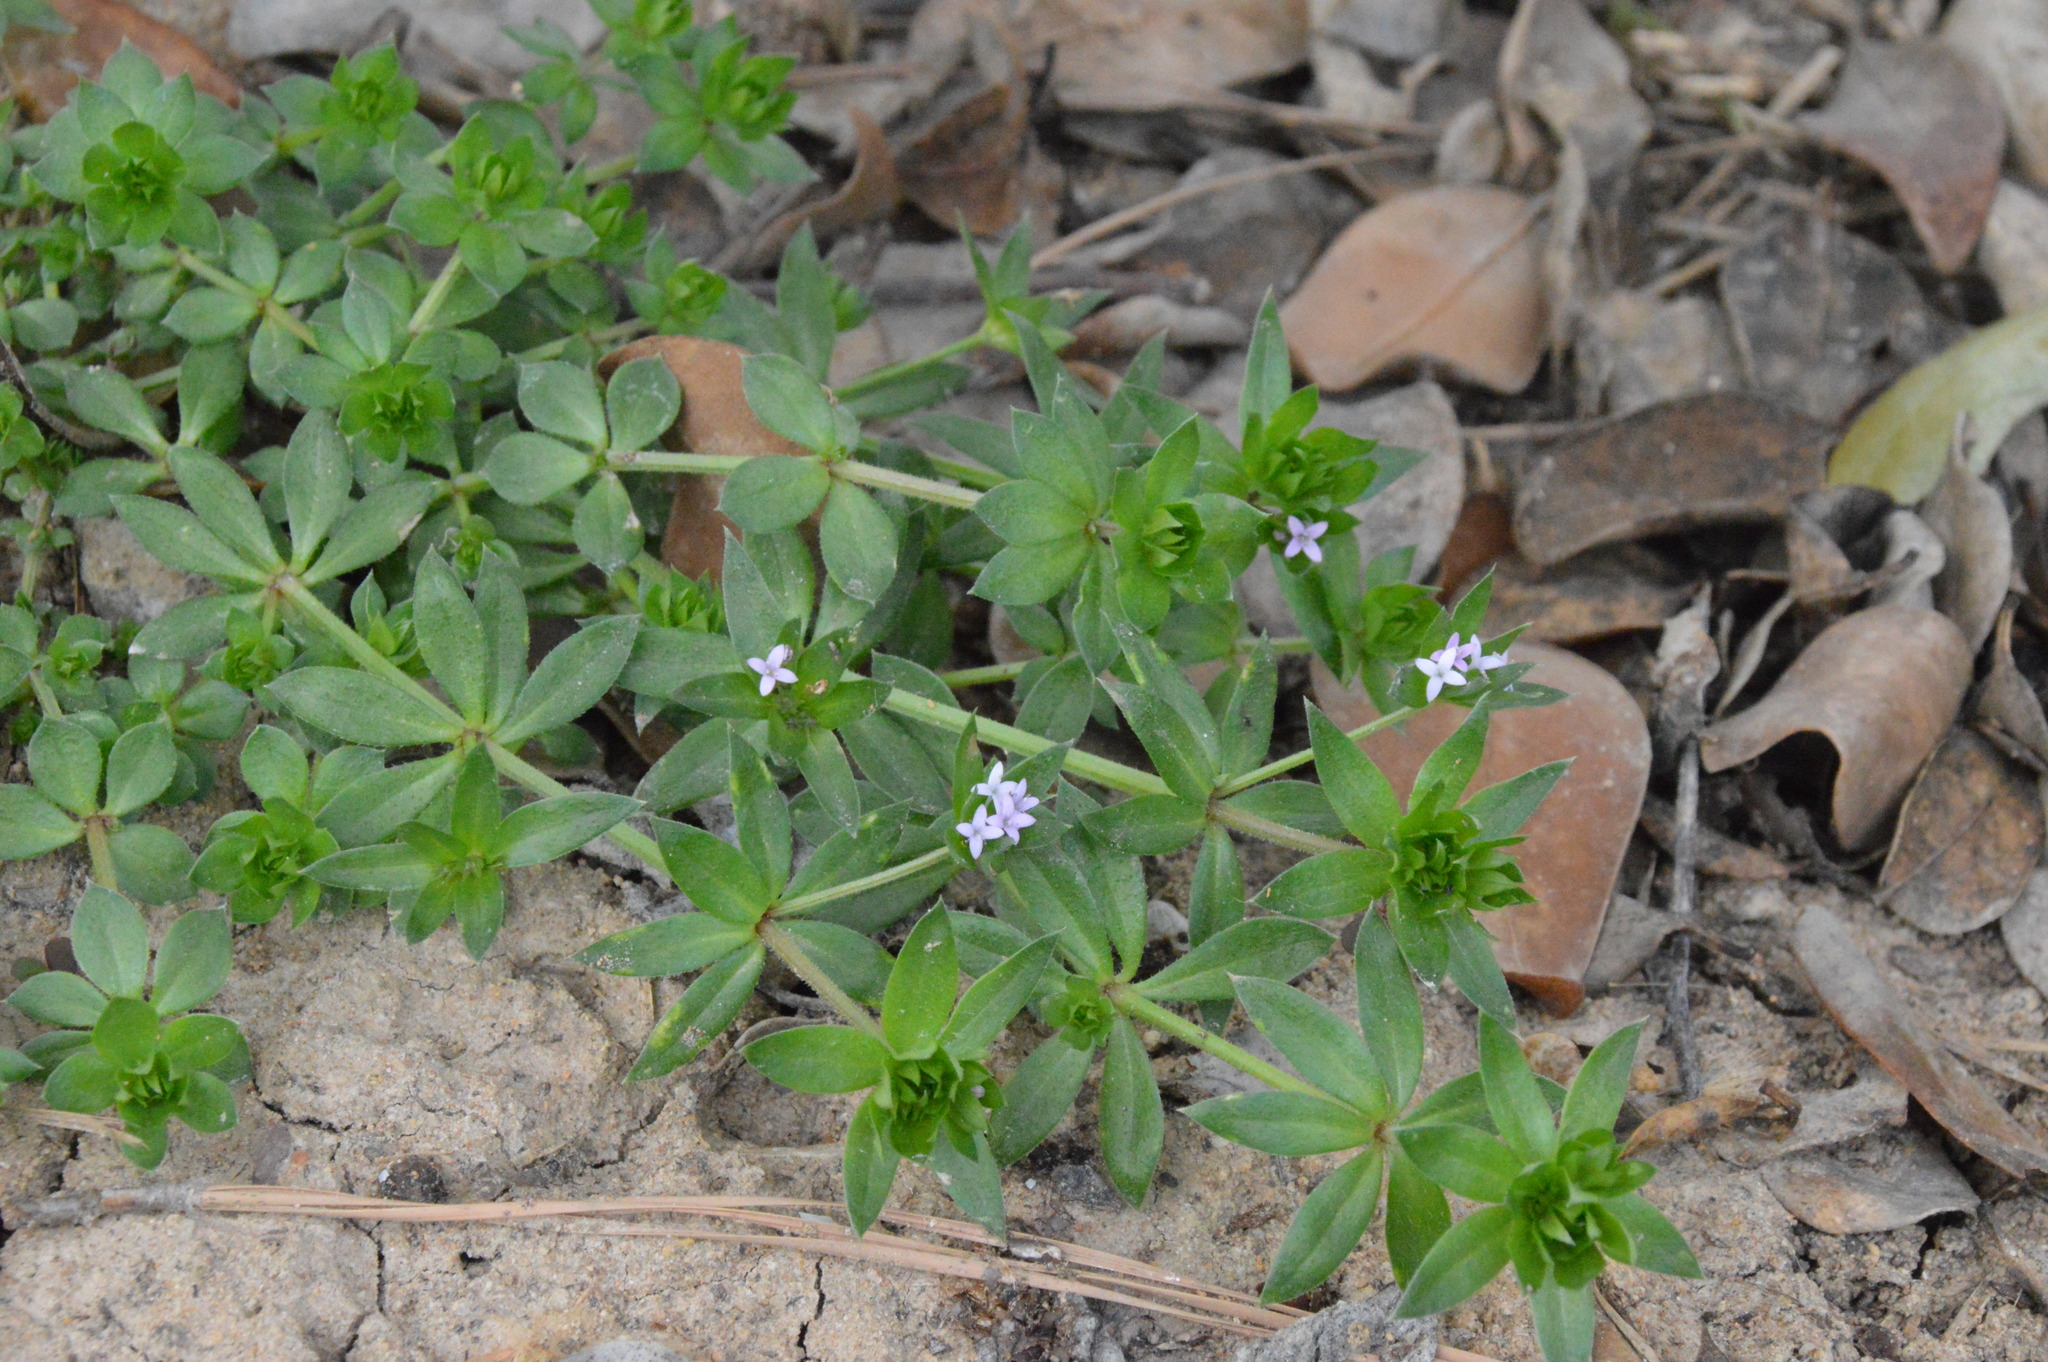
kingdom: Plantae
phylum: Tracheophyta
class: Magnoliopsida
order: Gentianales
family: Rubiaceae
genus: Sherardia
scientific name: Sherardia arvensis
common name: Field madder
